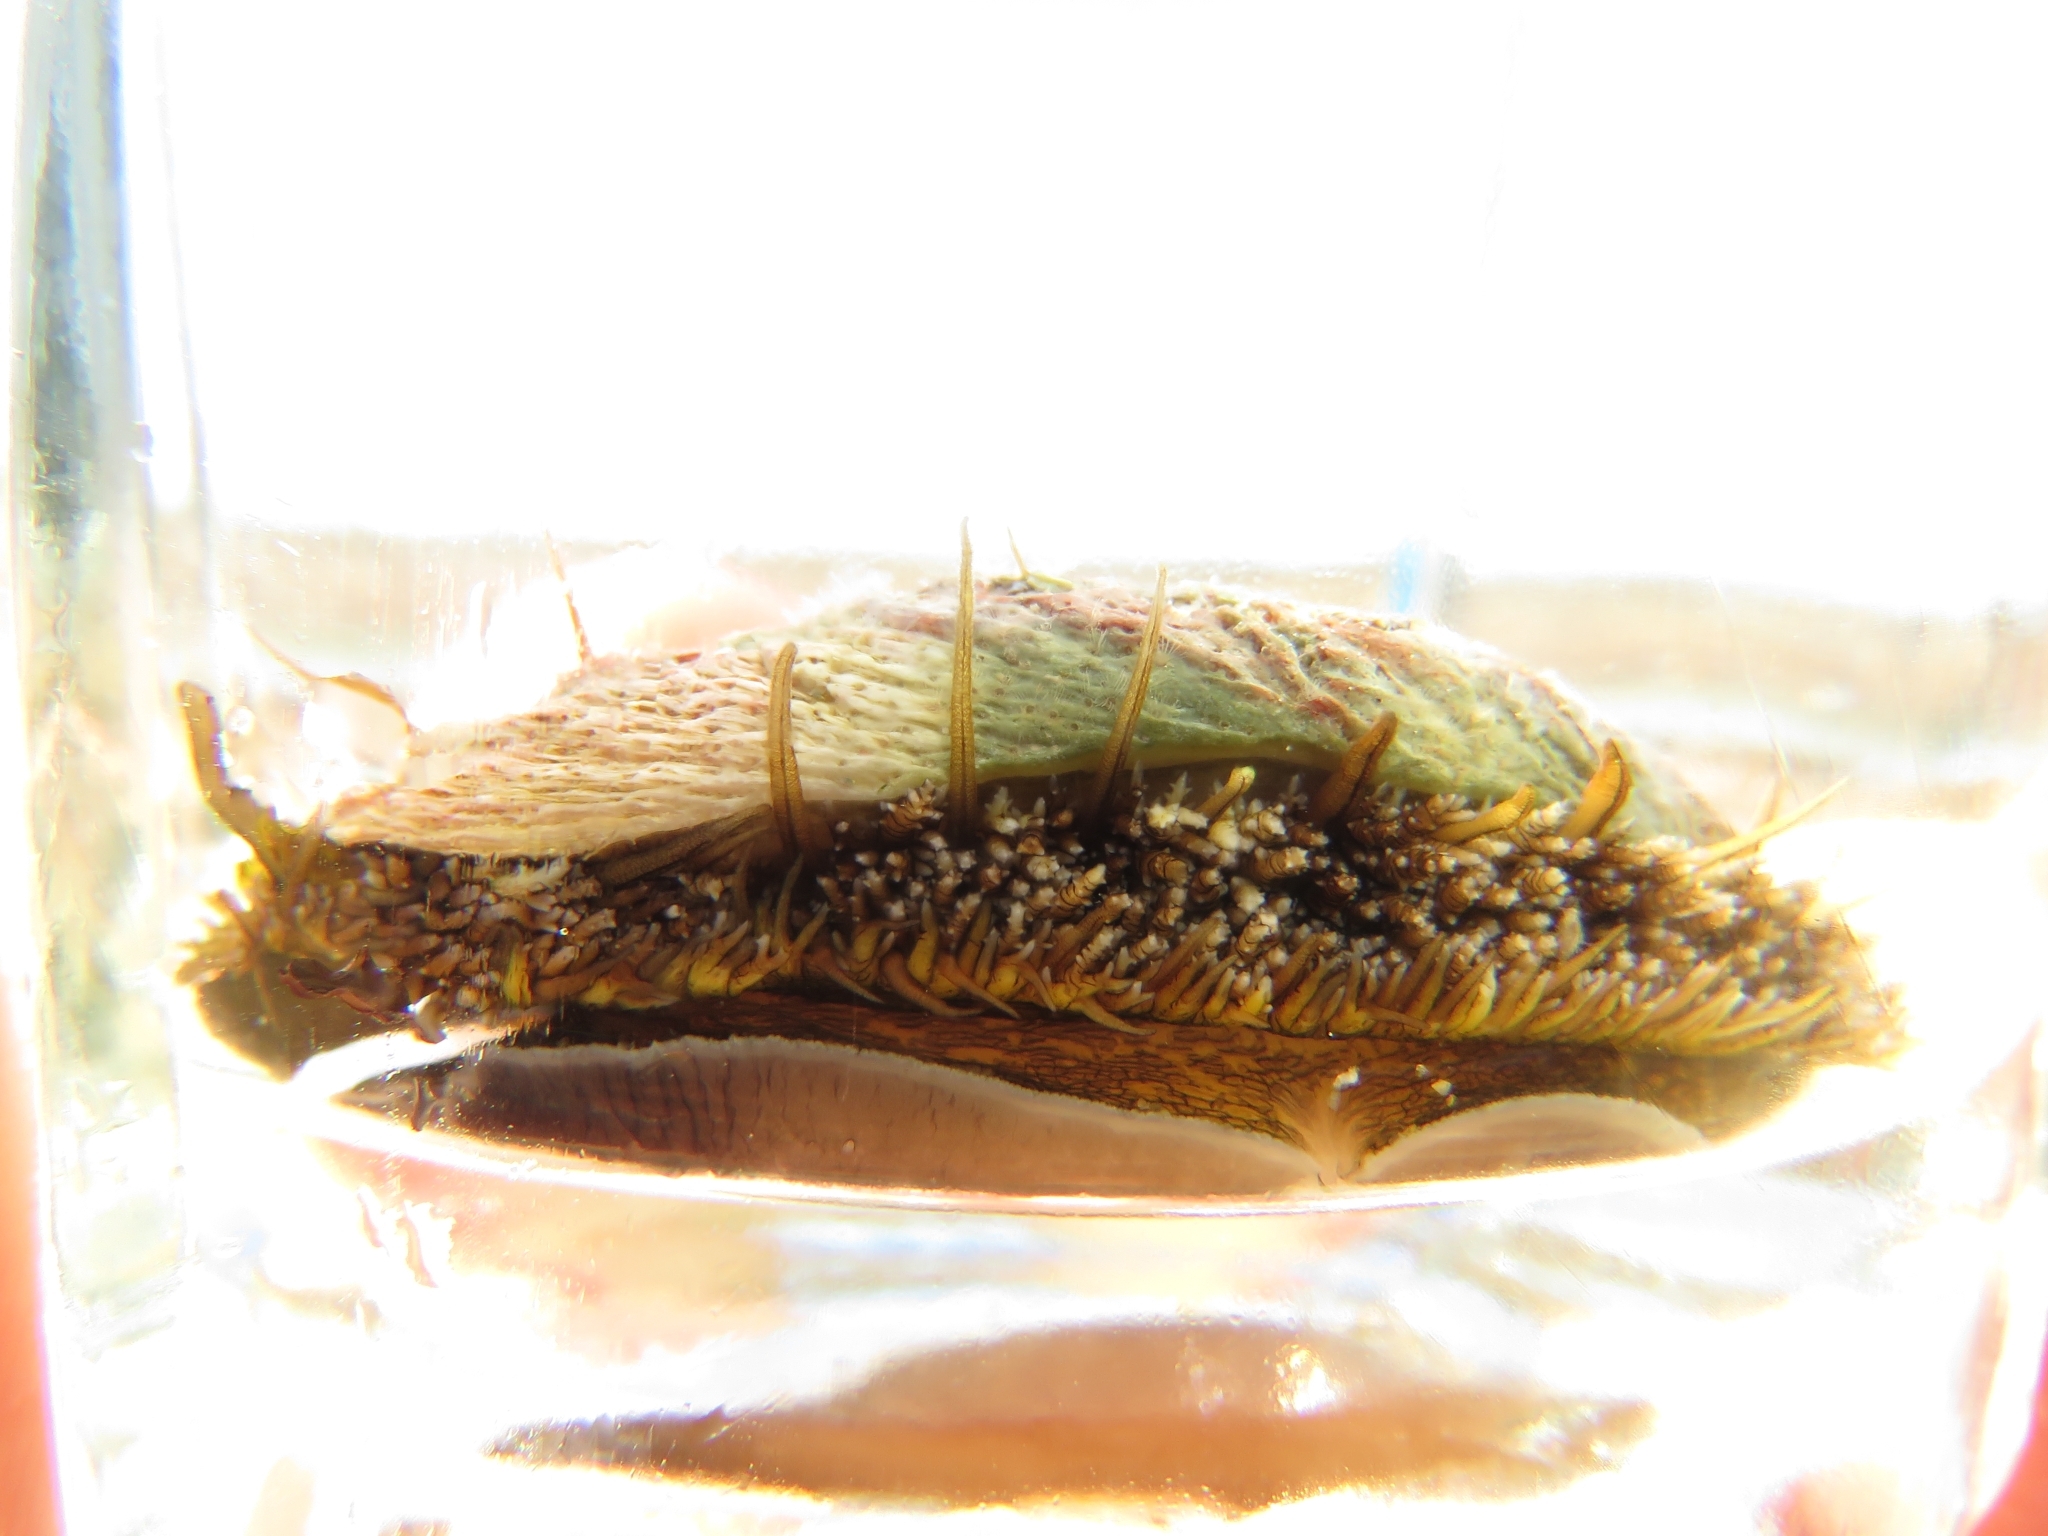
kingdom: Animalia
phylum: Mollusca
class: Gastropoda
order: Lepetellida
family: Haliotidae
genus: Haliotis
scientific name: Haliotis midae
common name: Perlemoen
